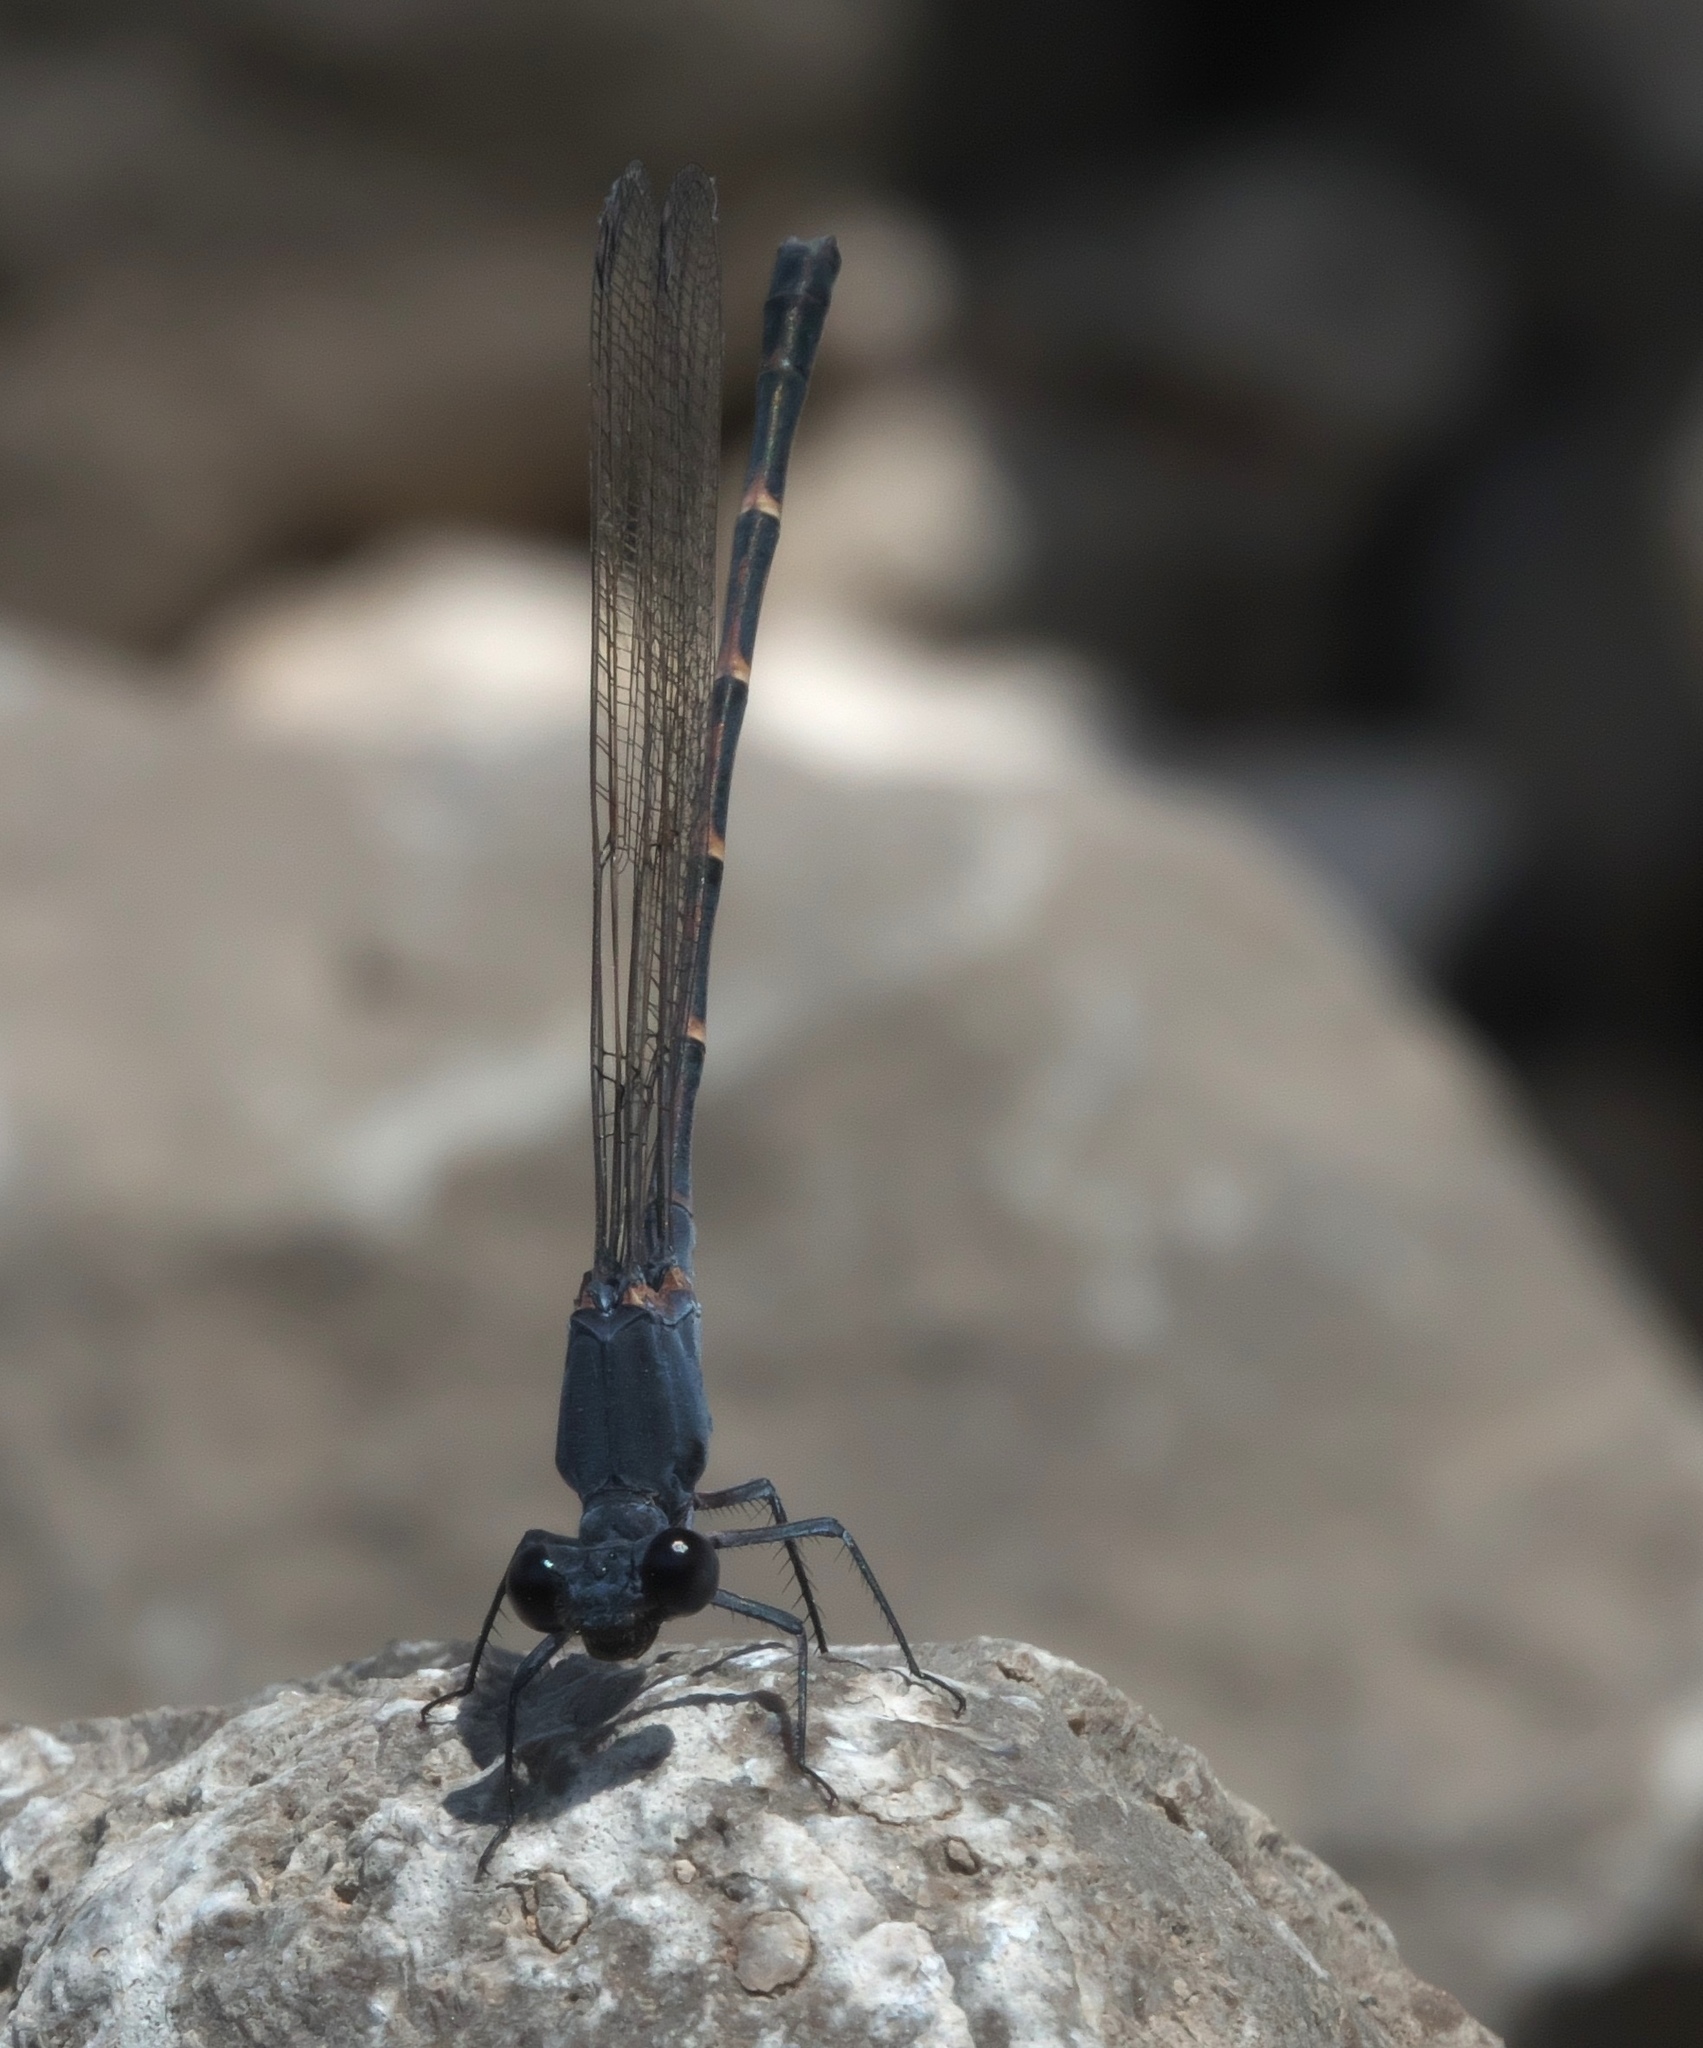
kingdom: Animalia
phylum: Arthropoda
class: Insecta
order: Odonata
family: Coenagrionidae
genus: Argia
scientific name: Argia lugens
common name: Sooty dancer
